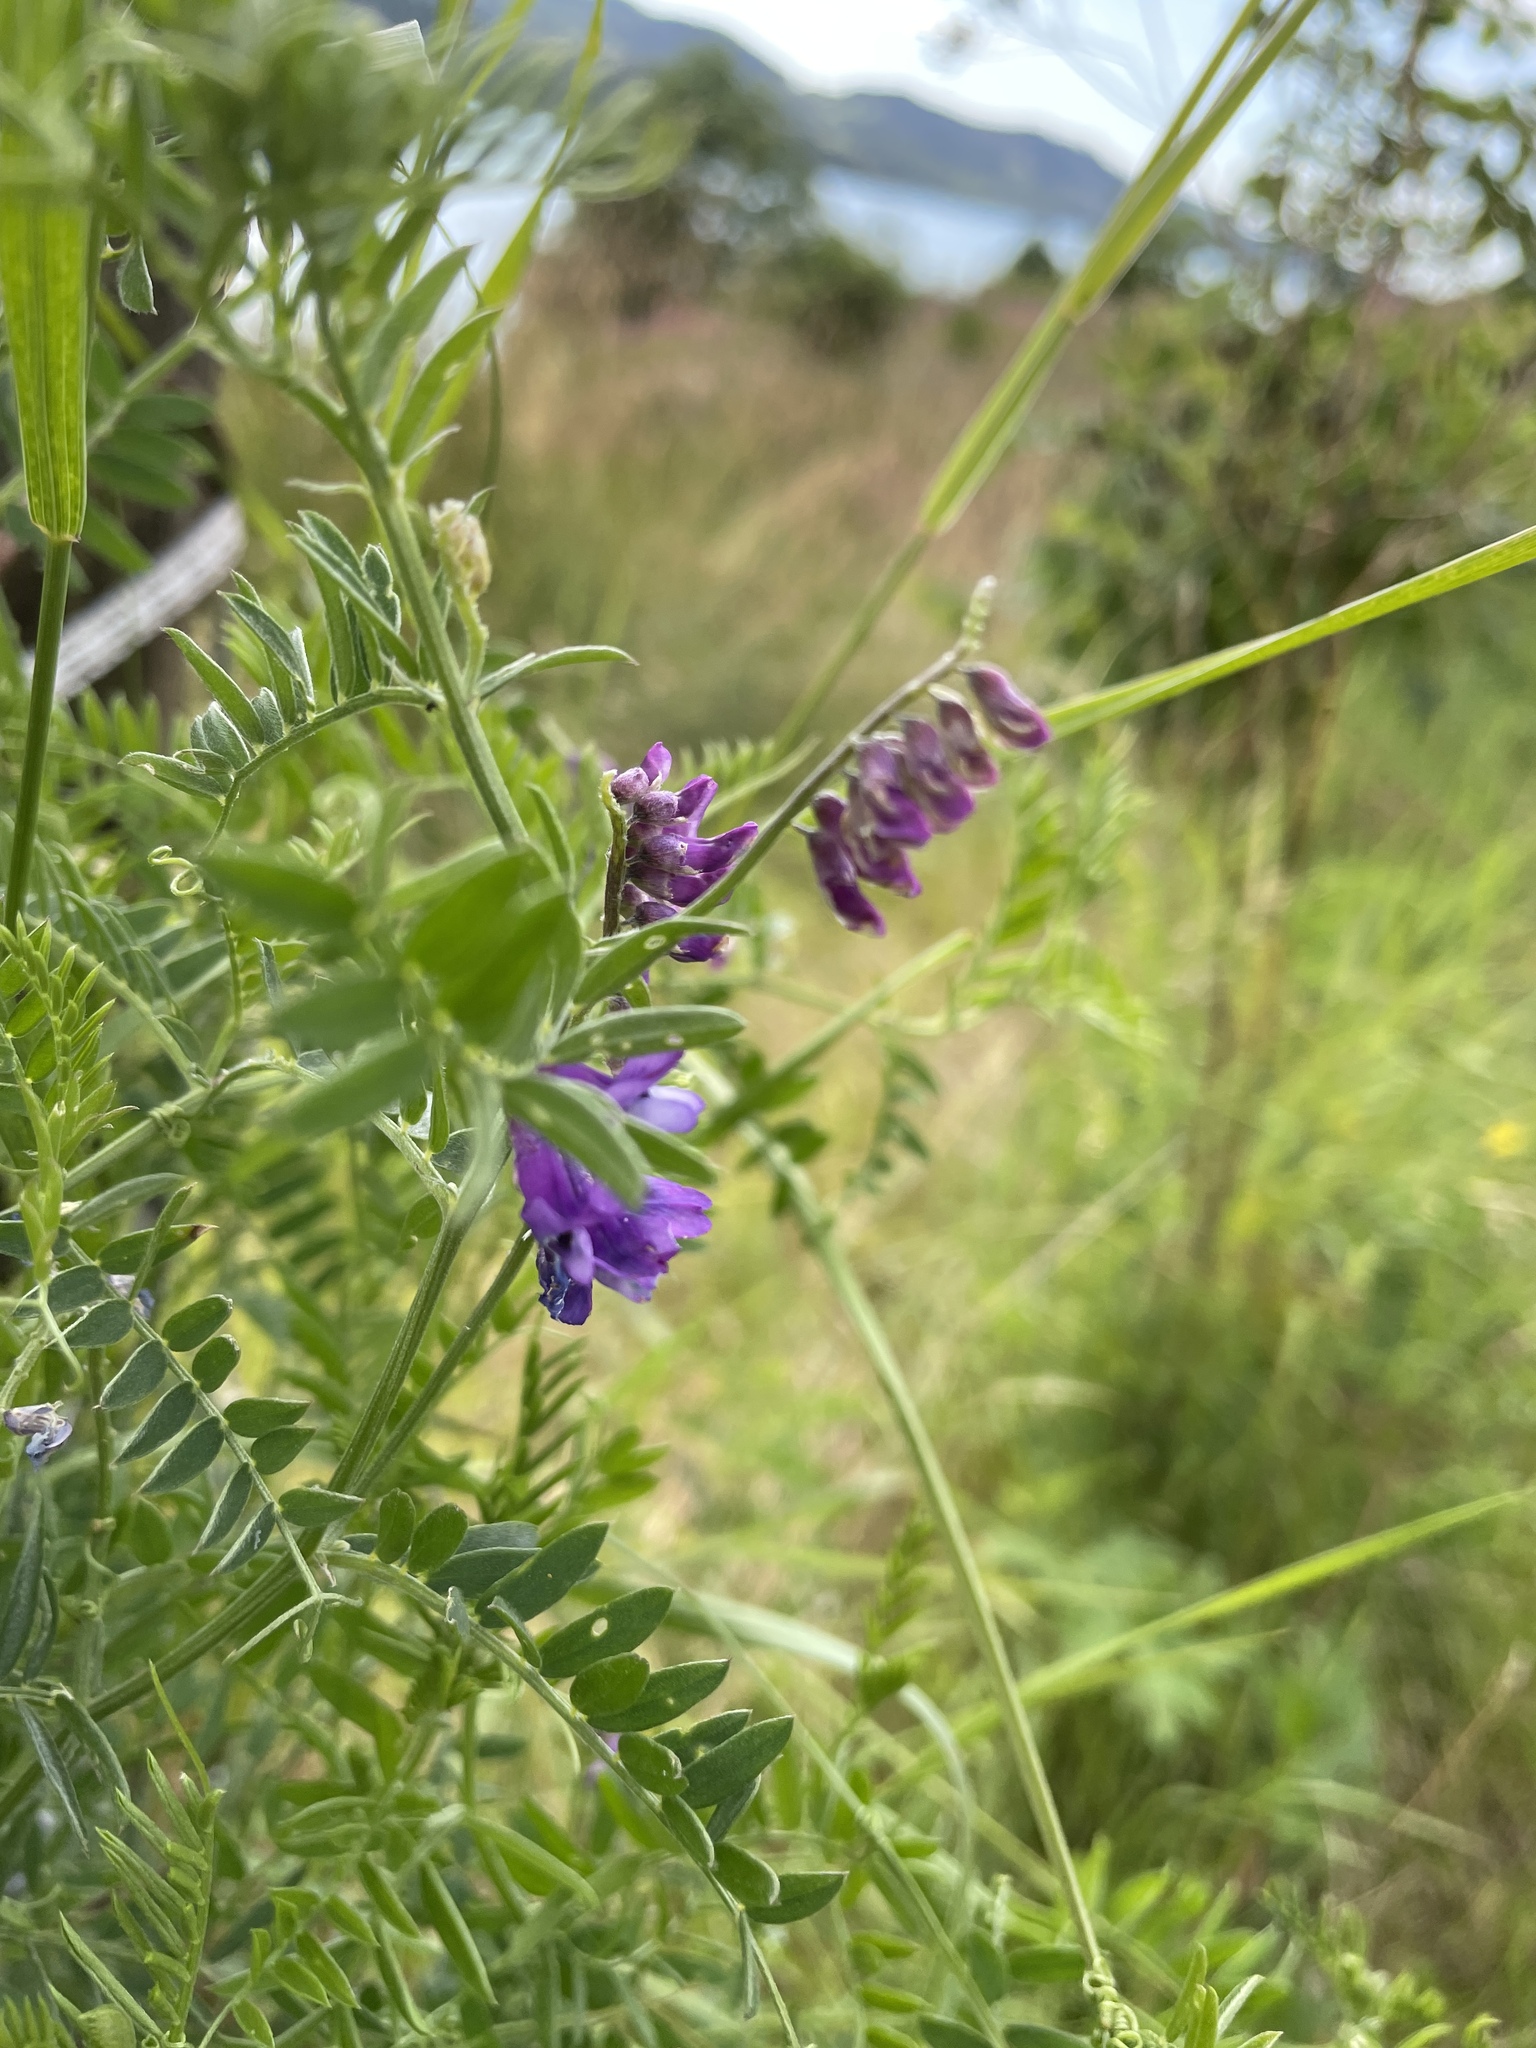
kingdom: Plantae
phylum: Tracheophyta
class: Magnoliopsida
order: Fabales
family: Fabaceae
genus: Vicia
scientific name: Vicia cracca
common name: Bird vetch
